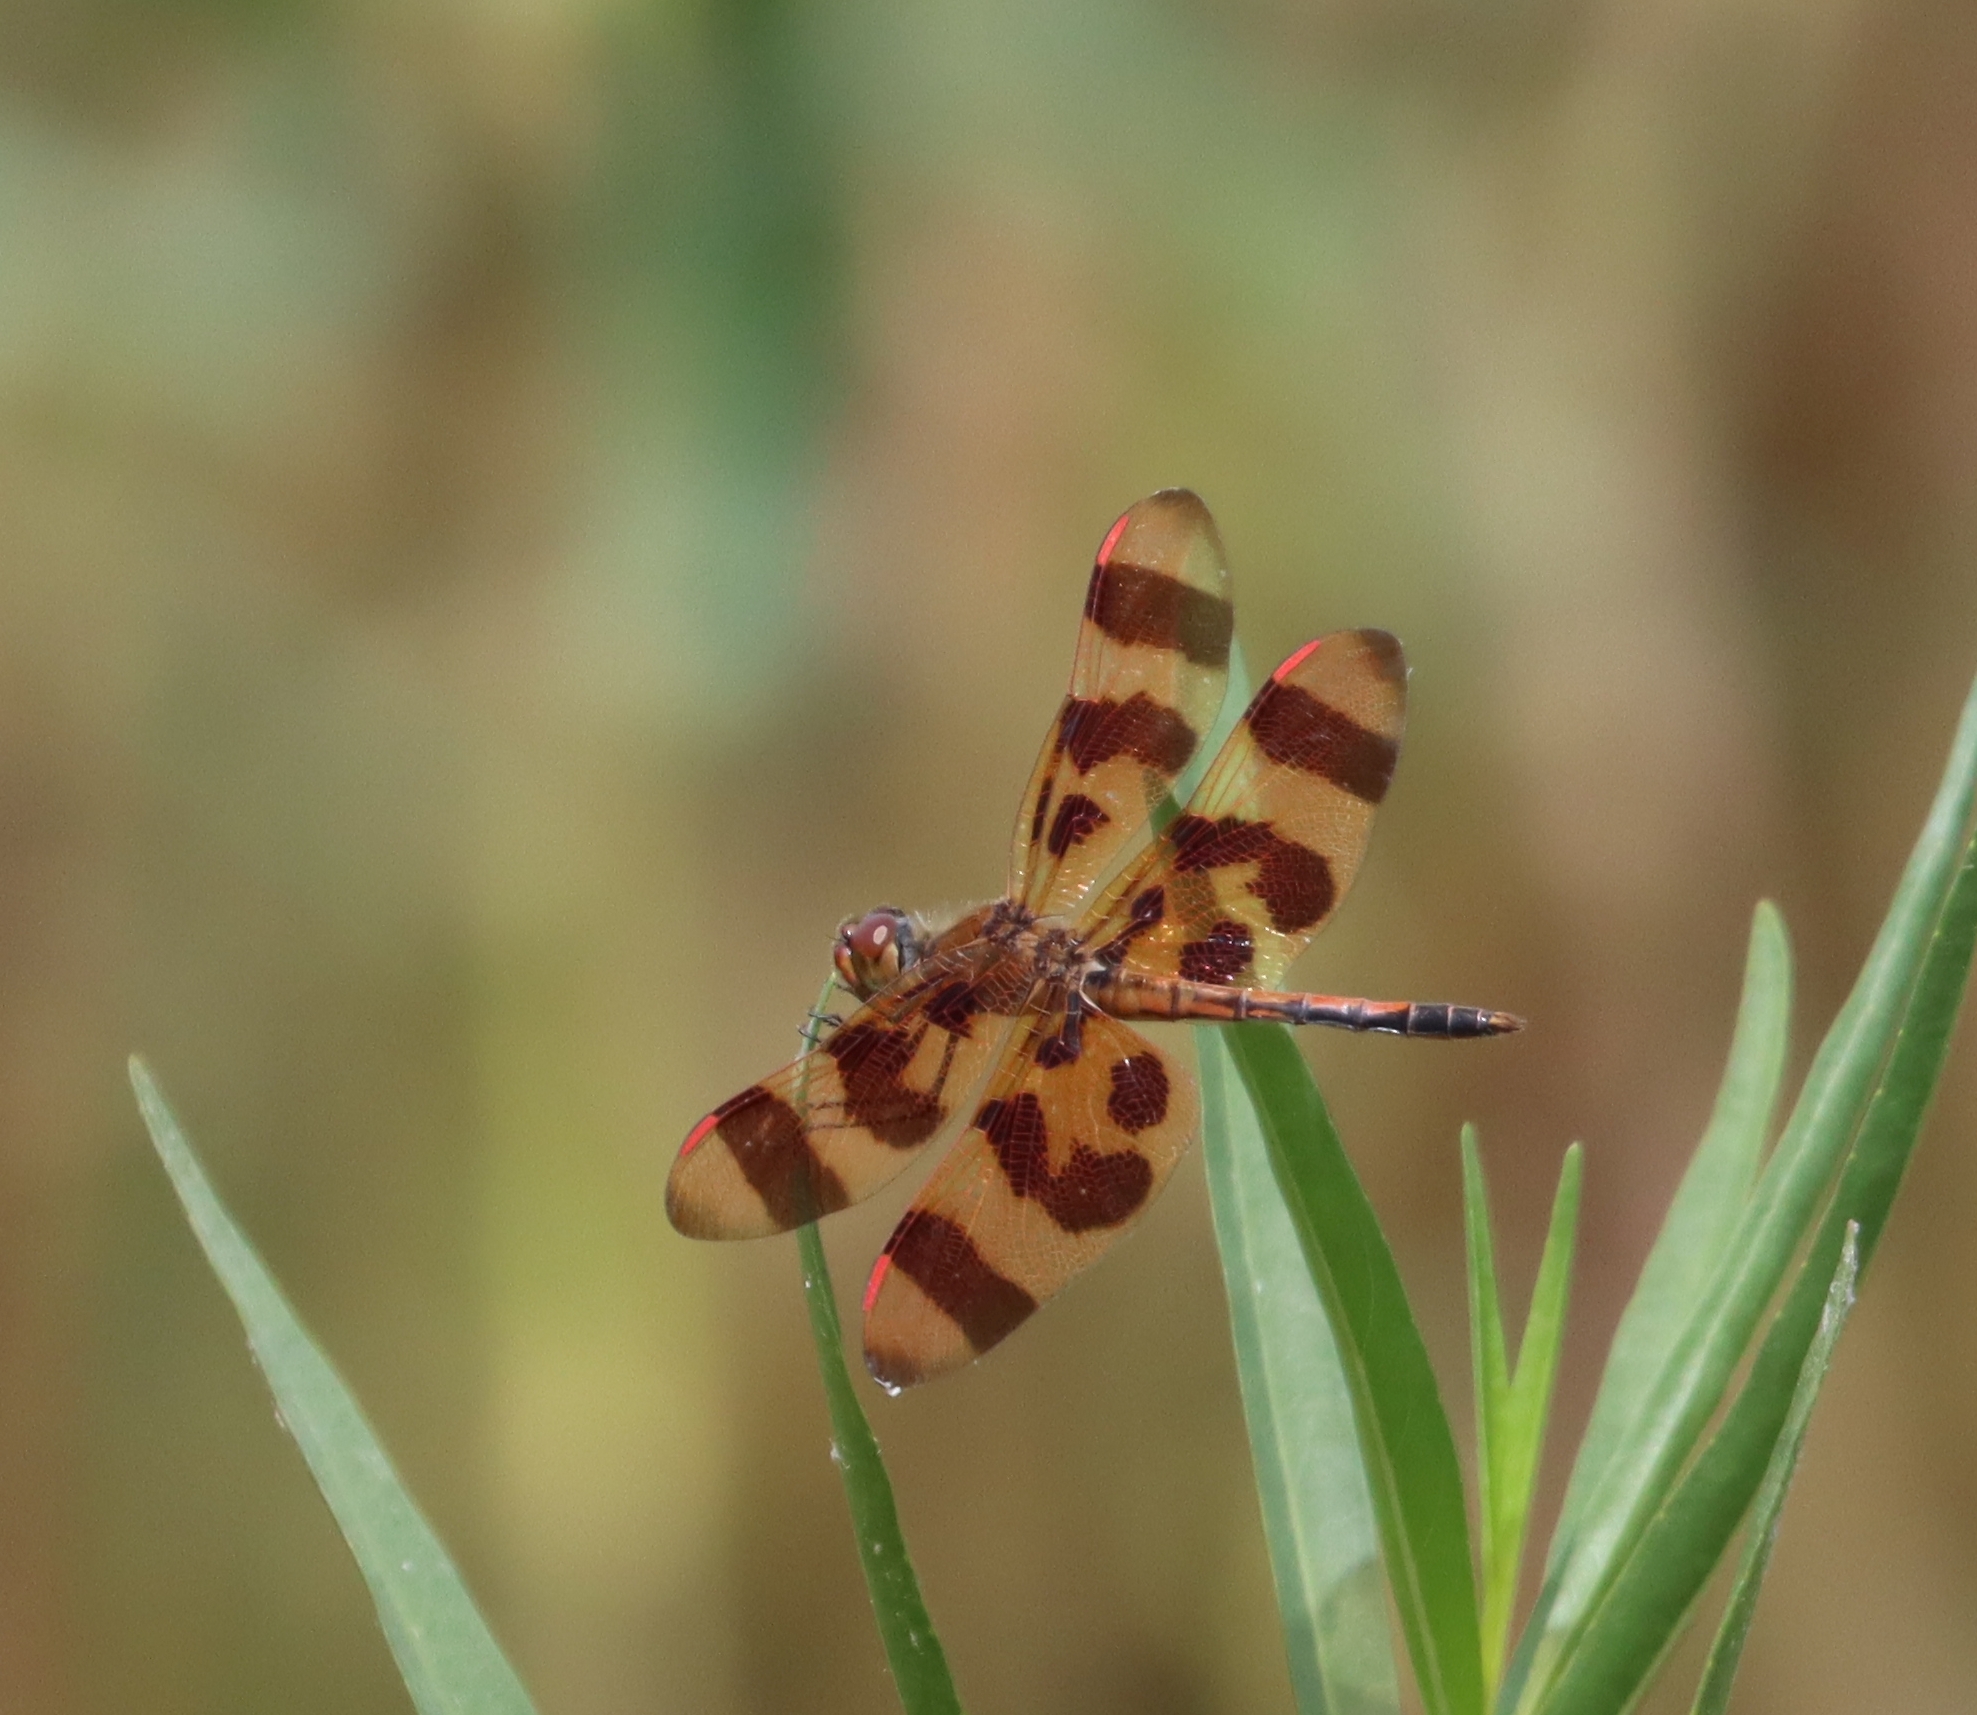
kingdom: Animalia
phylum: Arthropoda
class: Insecta
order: Odonata
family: Libellulidae
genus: Celithemis
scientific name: Celithemis eponina
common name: Halloween pennant
